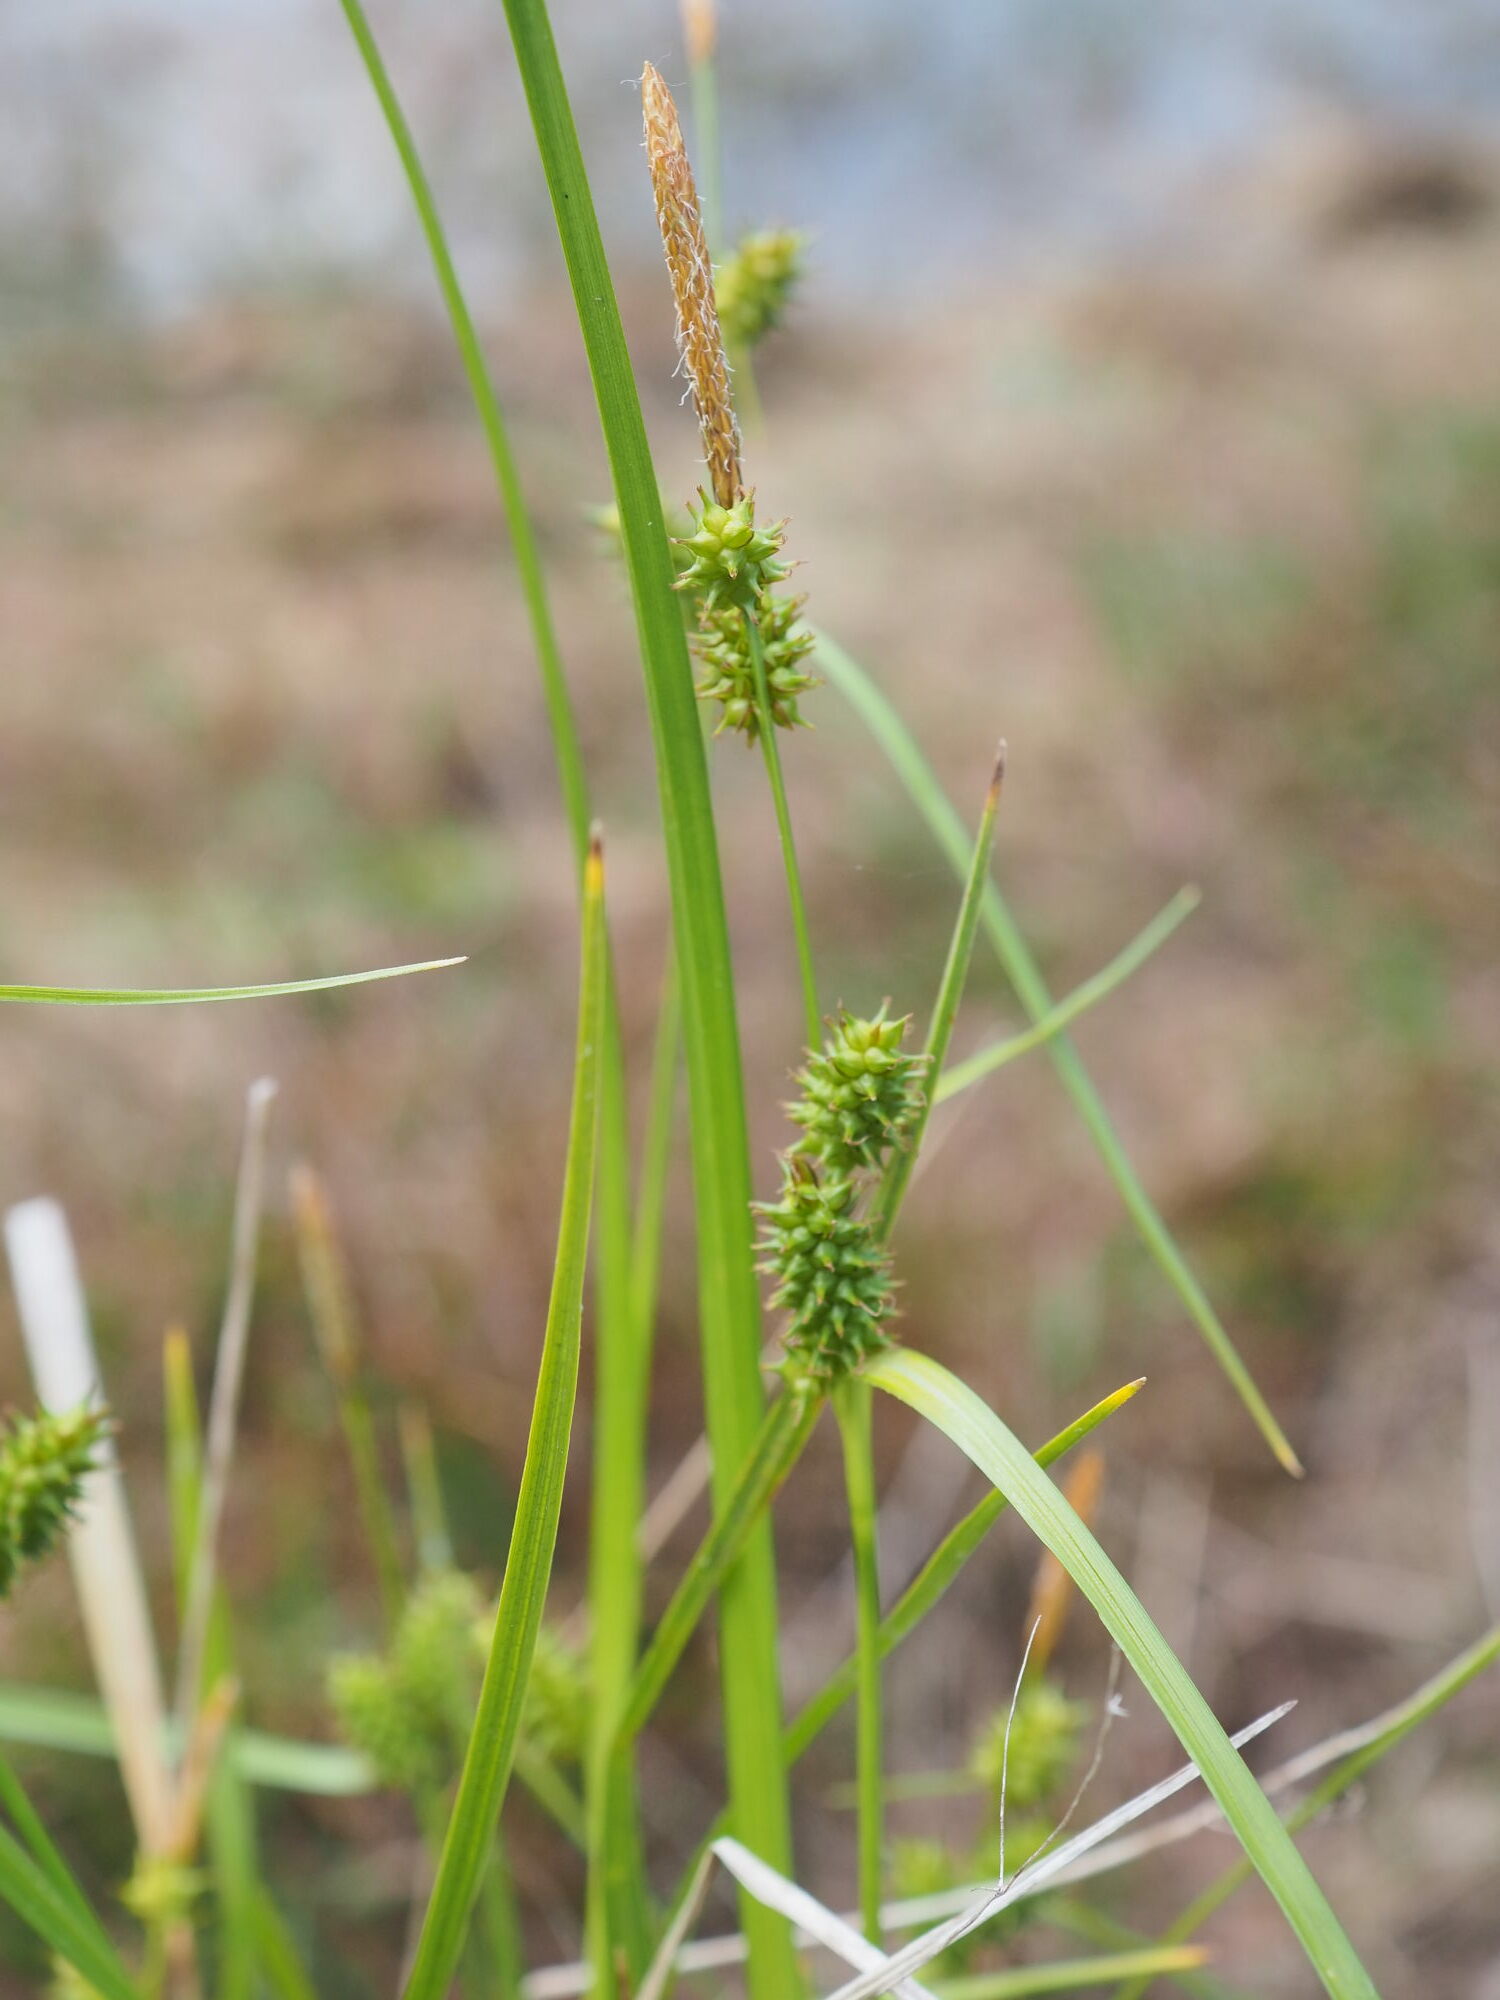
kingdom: Plantae
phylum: Tracheophyta
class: Liliopsida
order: Poales
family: Cyperaceae
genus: Carex
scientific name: Carex demissa
